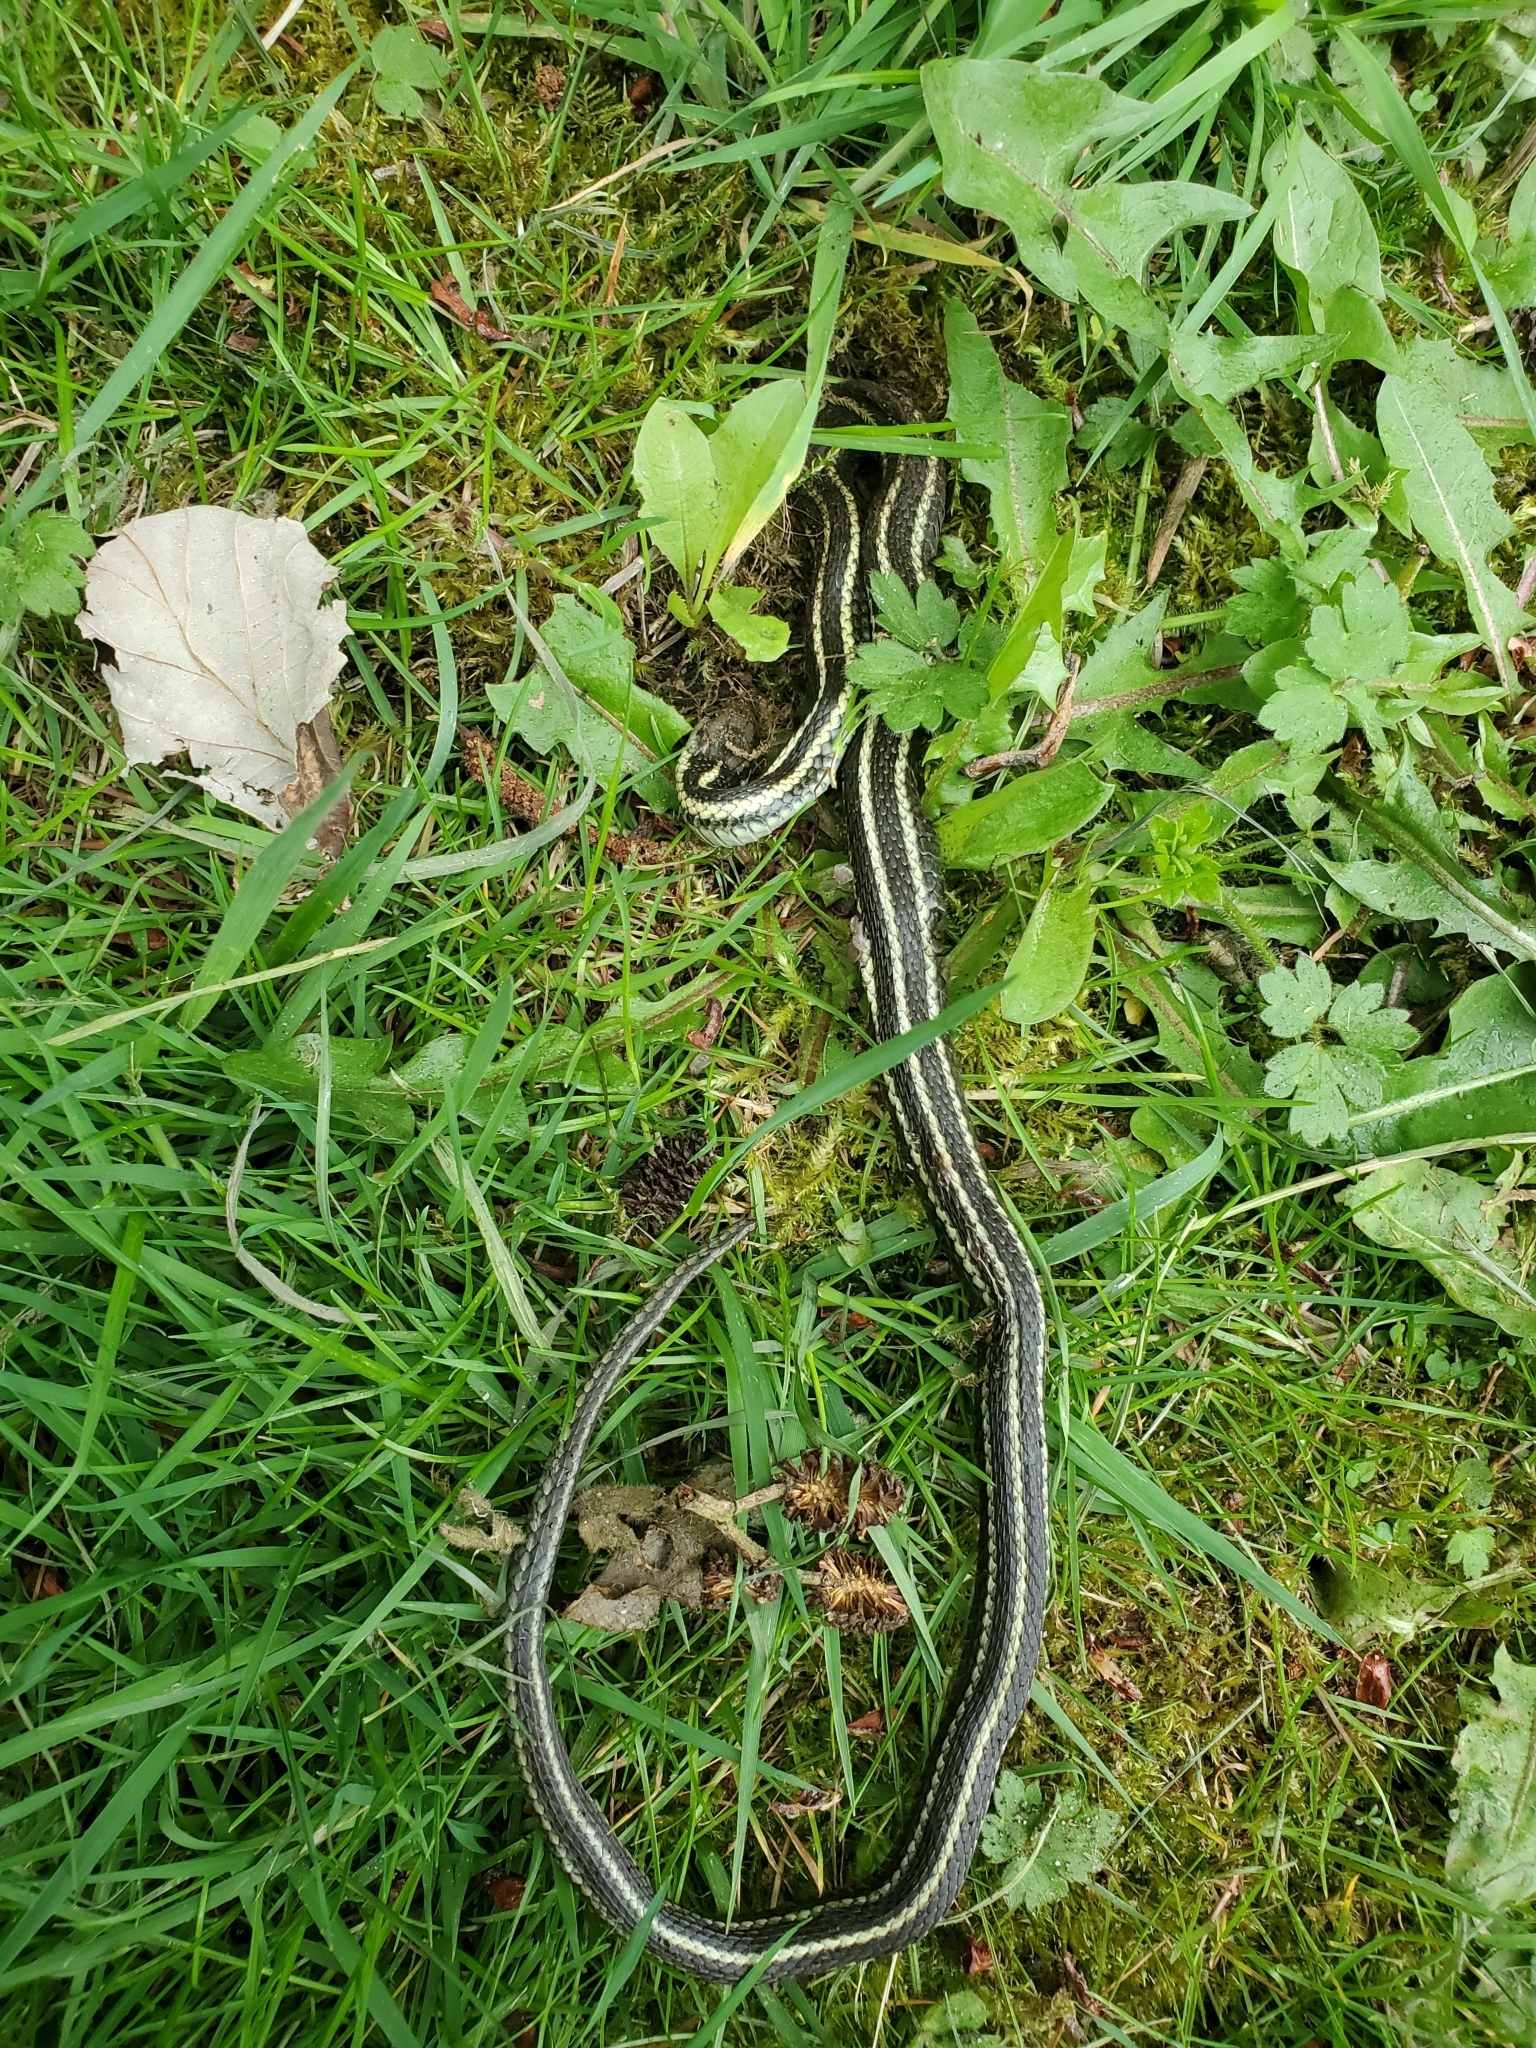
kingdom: Animalia
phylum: Chordata
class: Squamata
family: Colubridae
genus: Thamnophis
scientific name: Thamnophis ordinoides
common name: Northwestern garter snake
